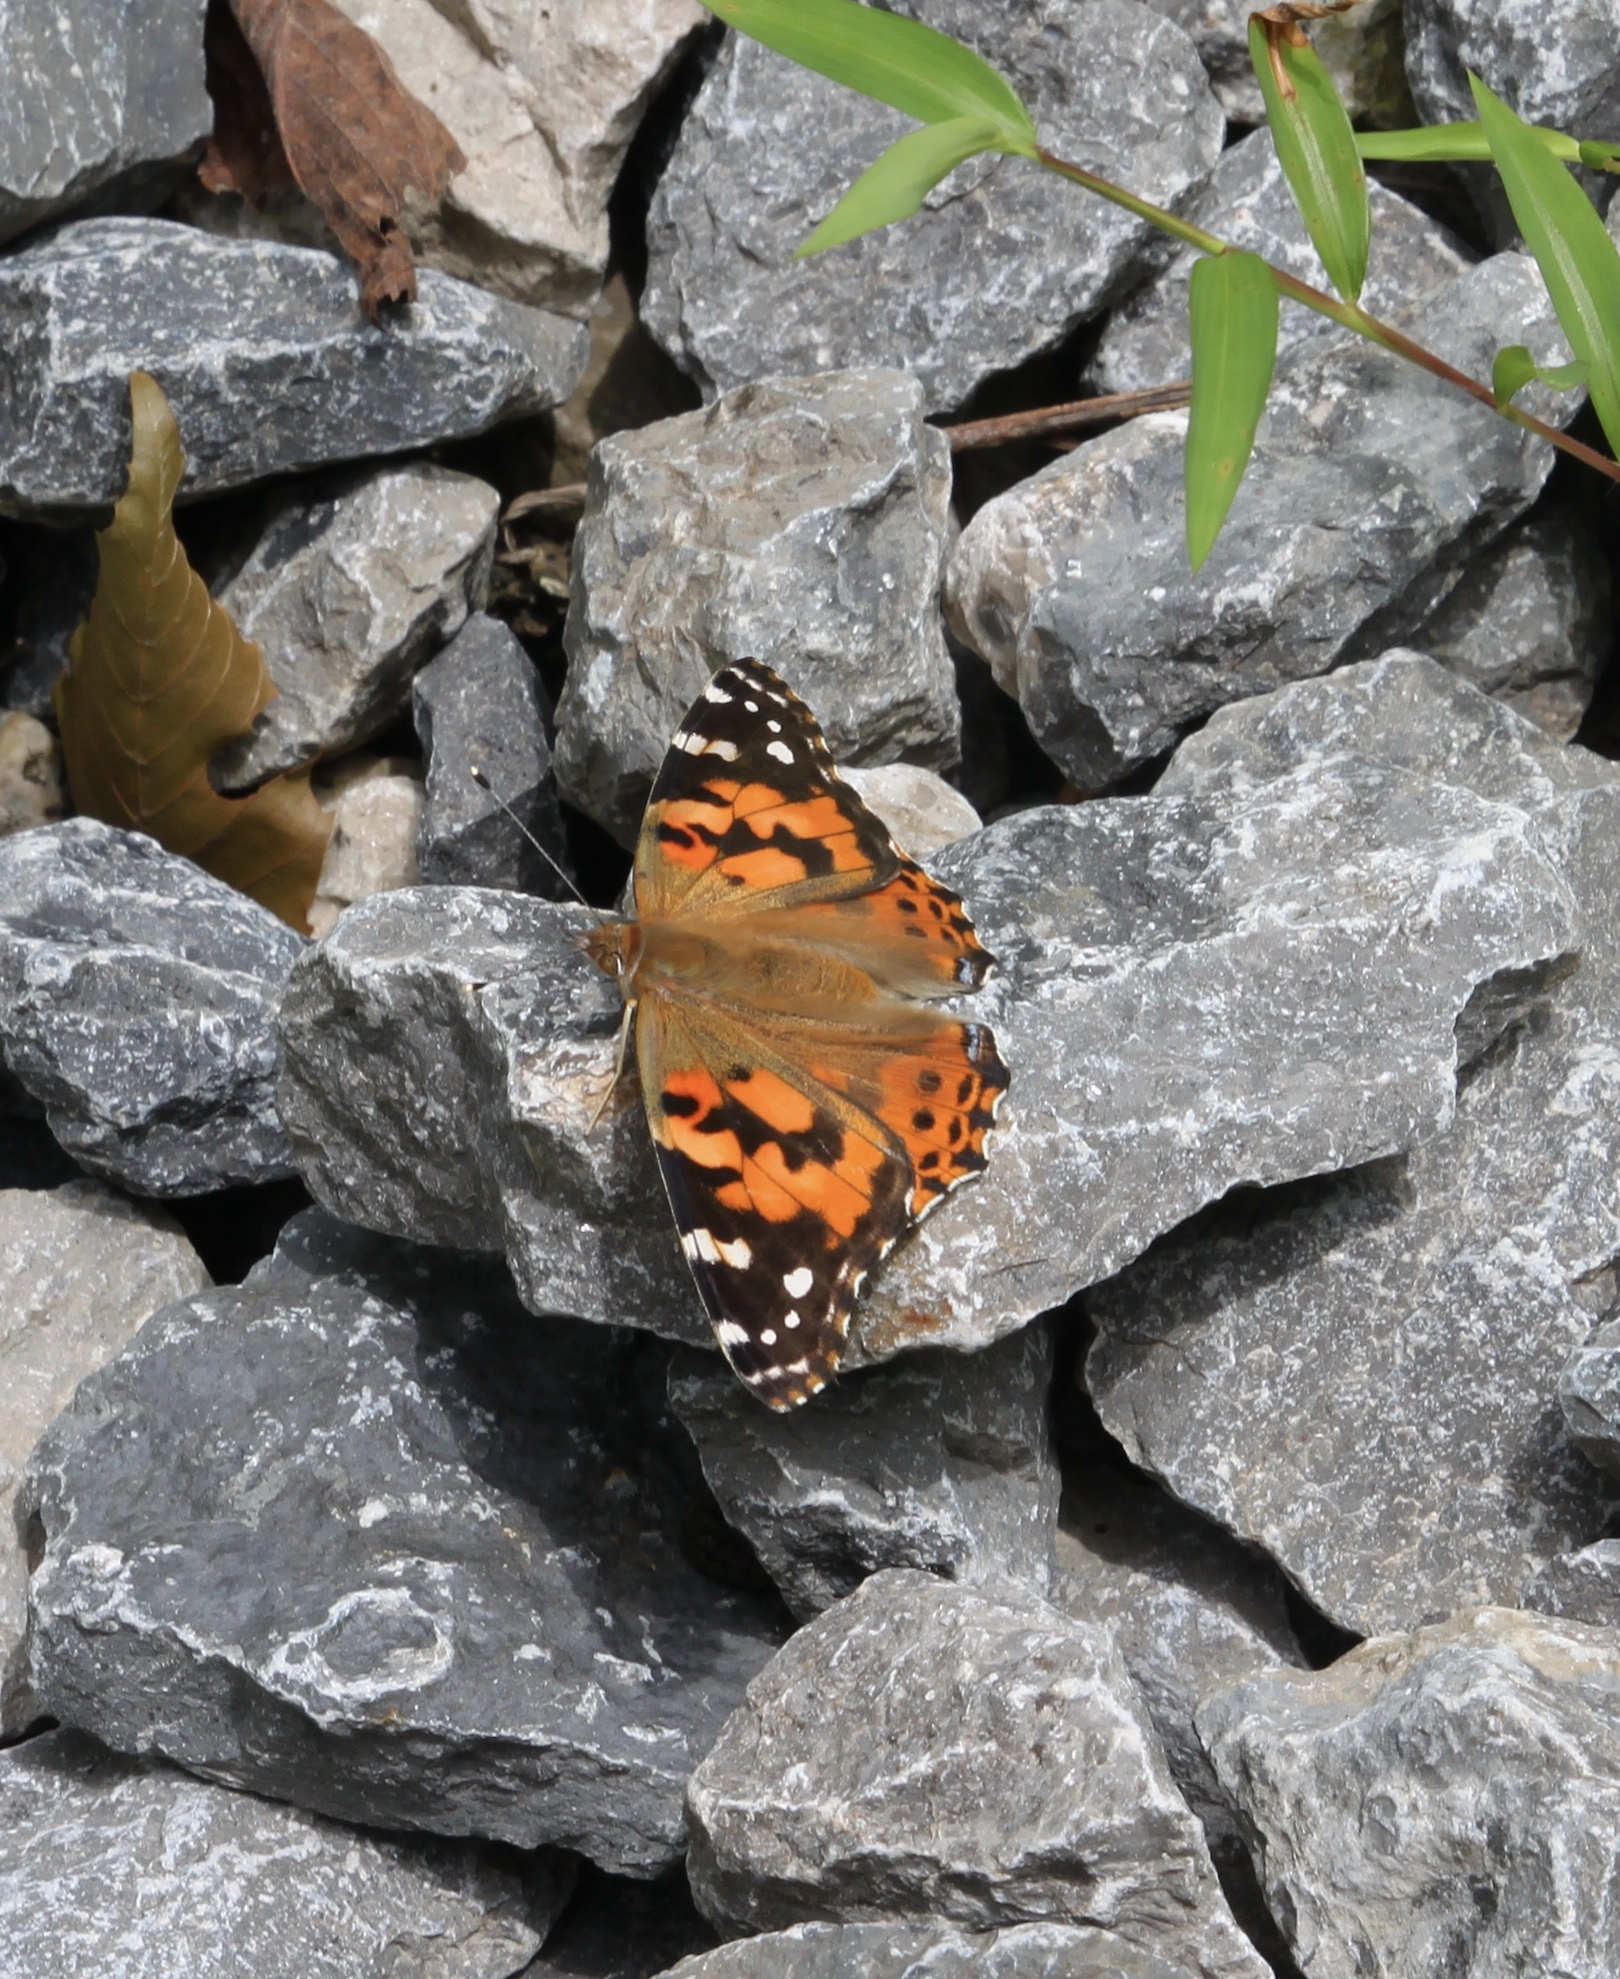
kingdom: Animalia
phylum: Arthropoda
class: Insecta
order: Lepidoptera
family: Nymphalidae
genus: Vanessa
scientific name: Vanessa cardui
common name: Painted lady
